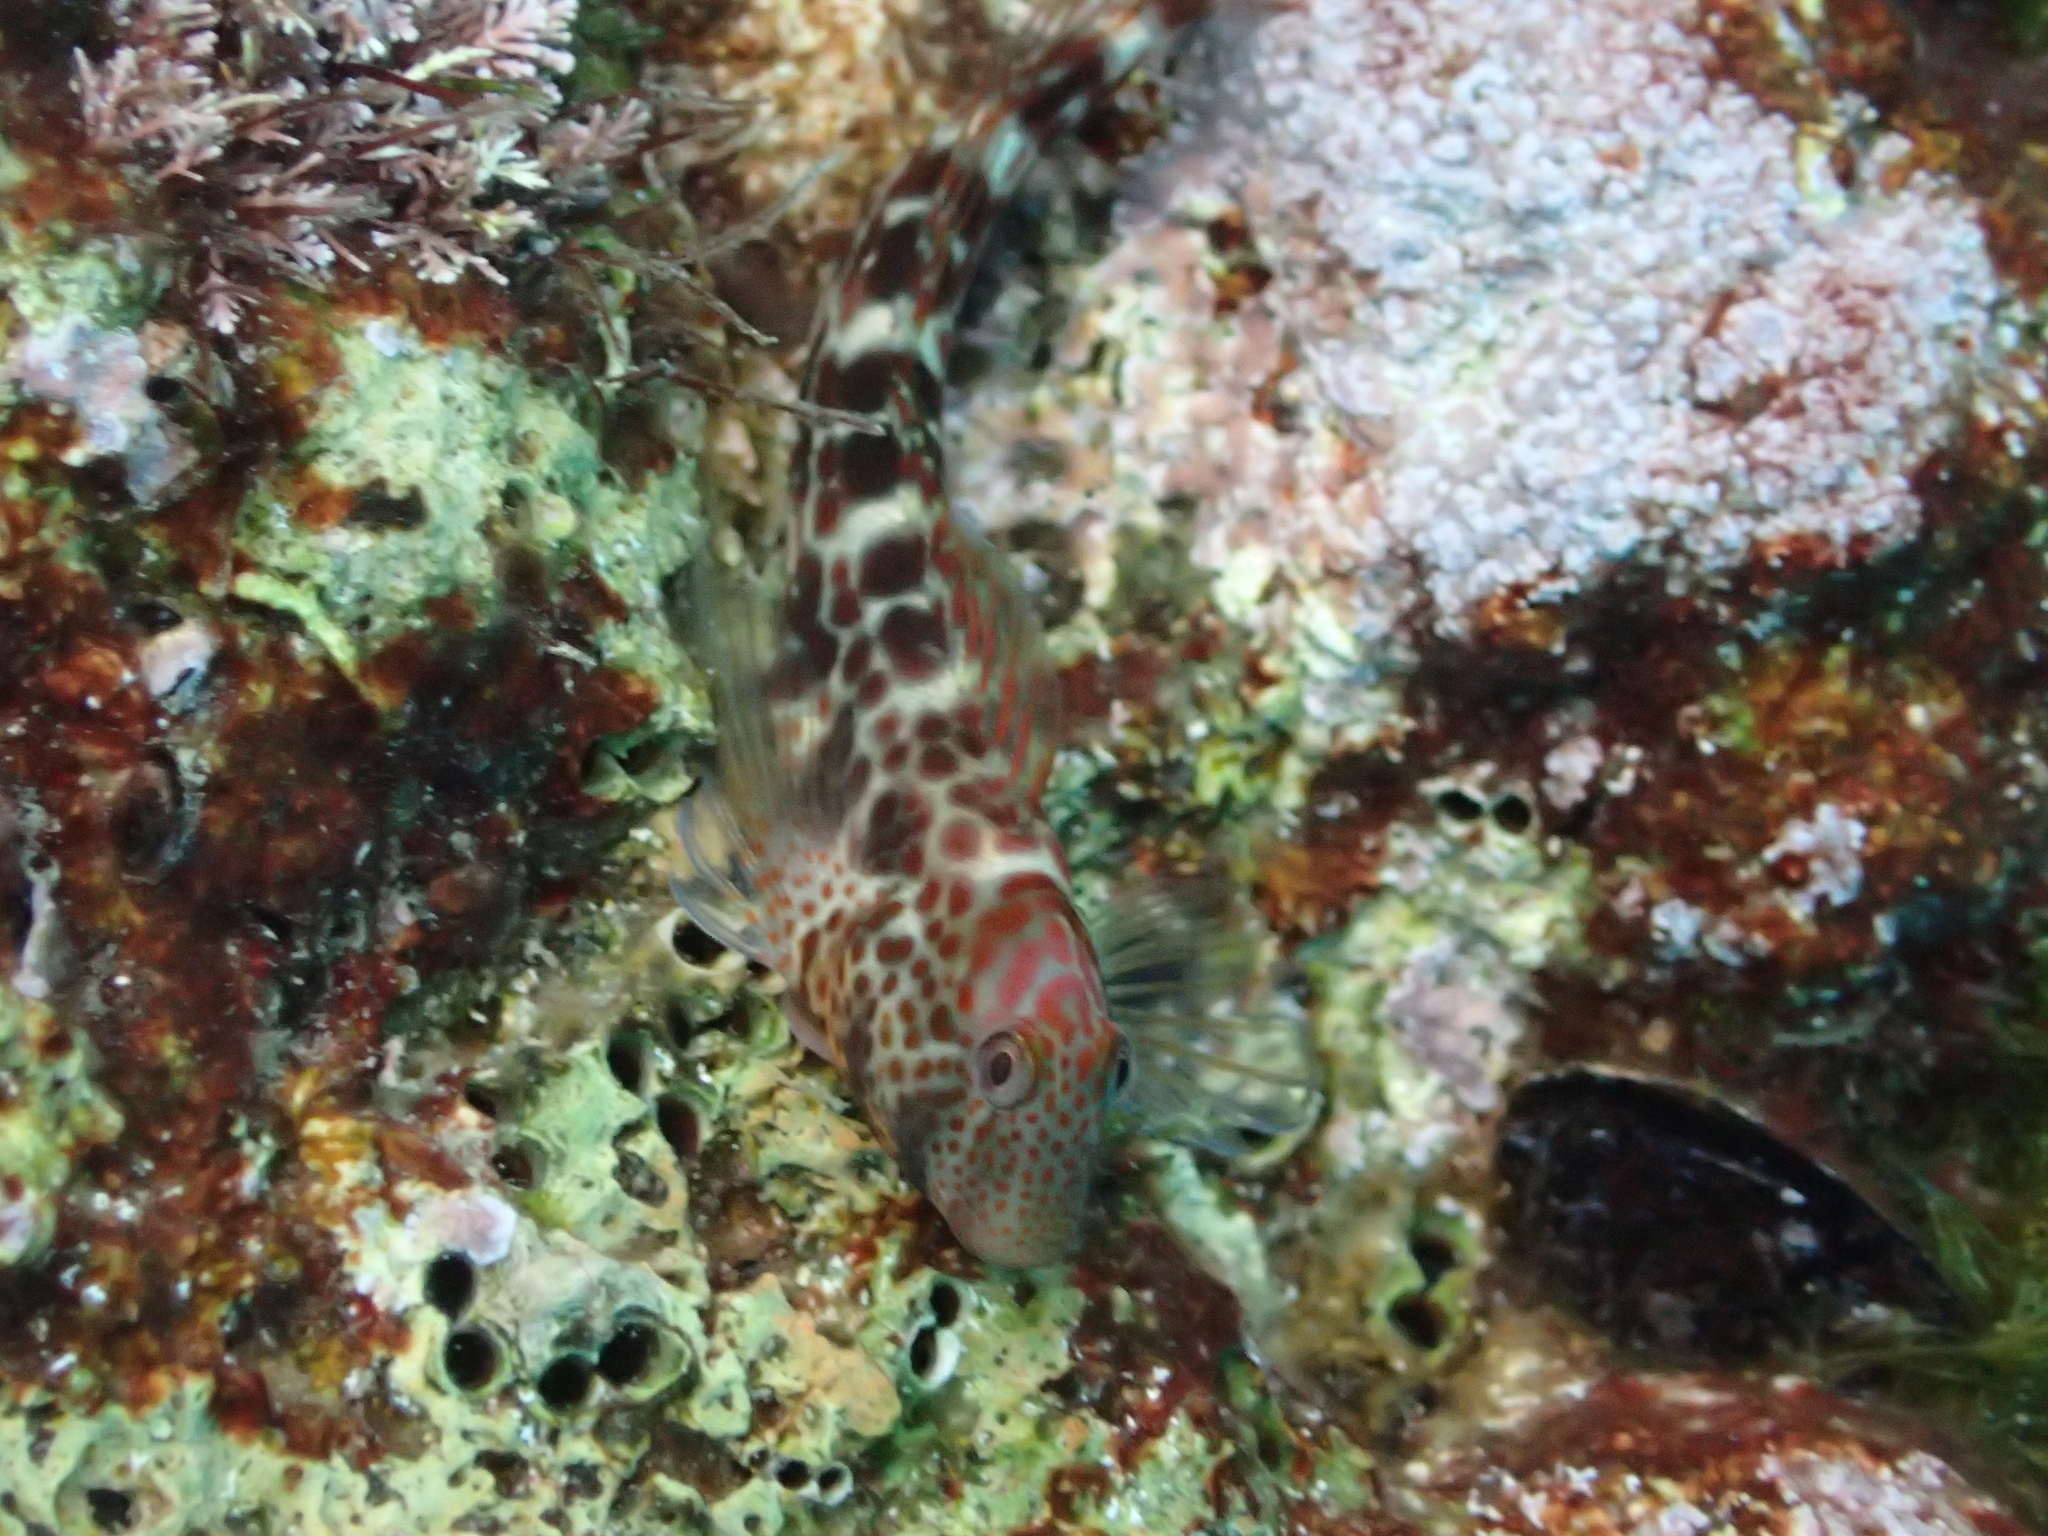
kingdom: Animalia
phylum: Chordata
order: Perciformes
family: Blenniidae
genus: Microlipophrys
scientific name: Microlipophrys canevae
